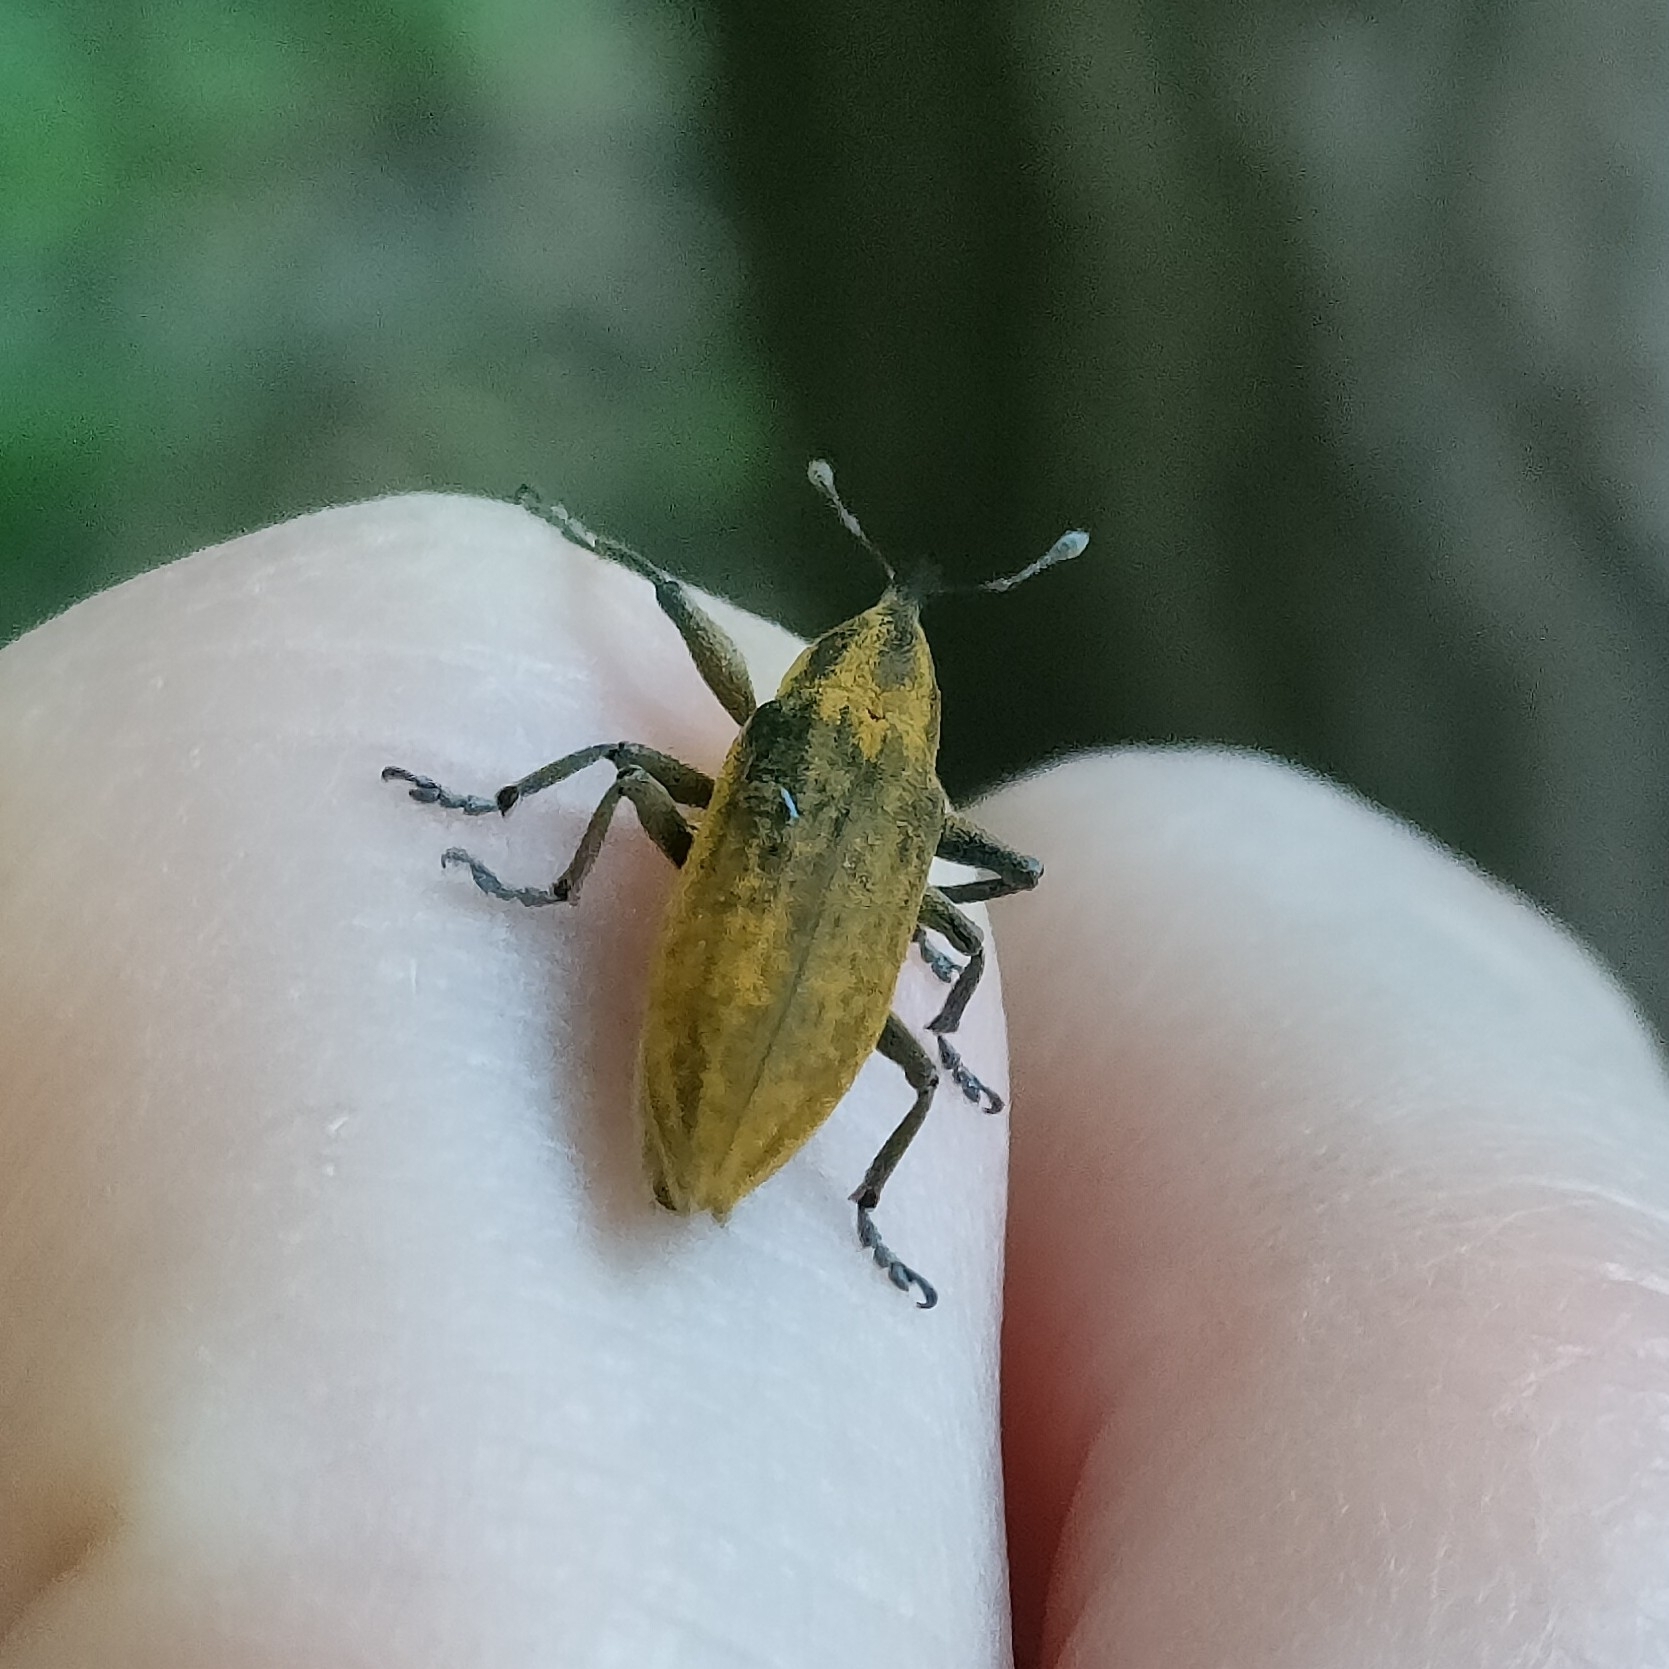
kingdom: Animalia
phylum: Arthropoda
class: Insecta
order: Coleoptera
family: Curculionidae
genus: Lixus
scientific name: Lixus iridis
